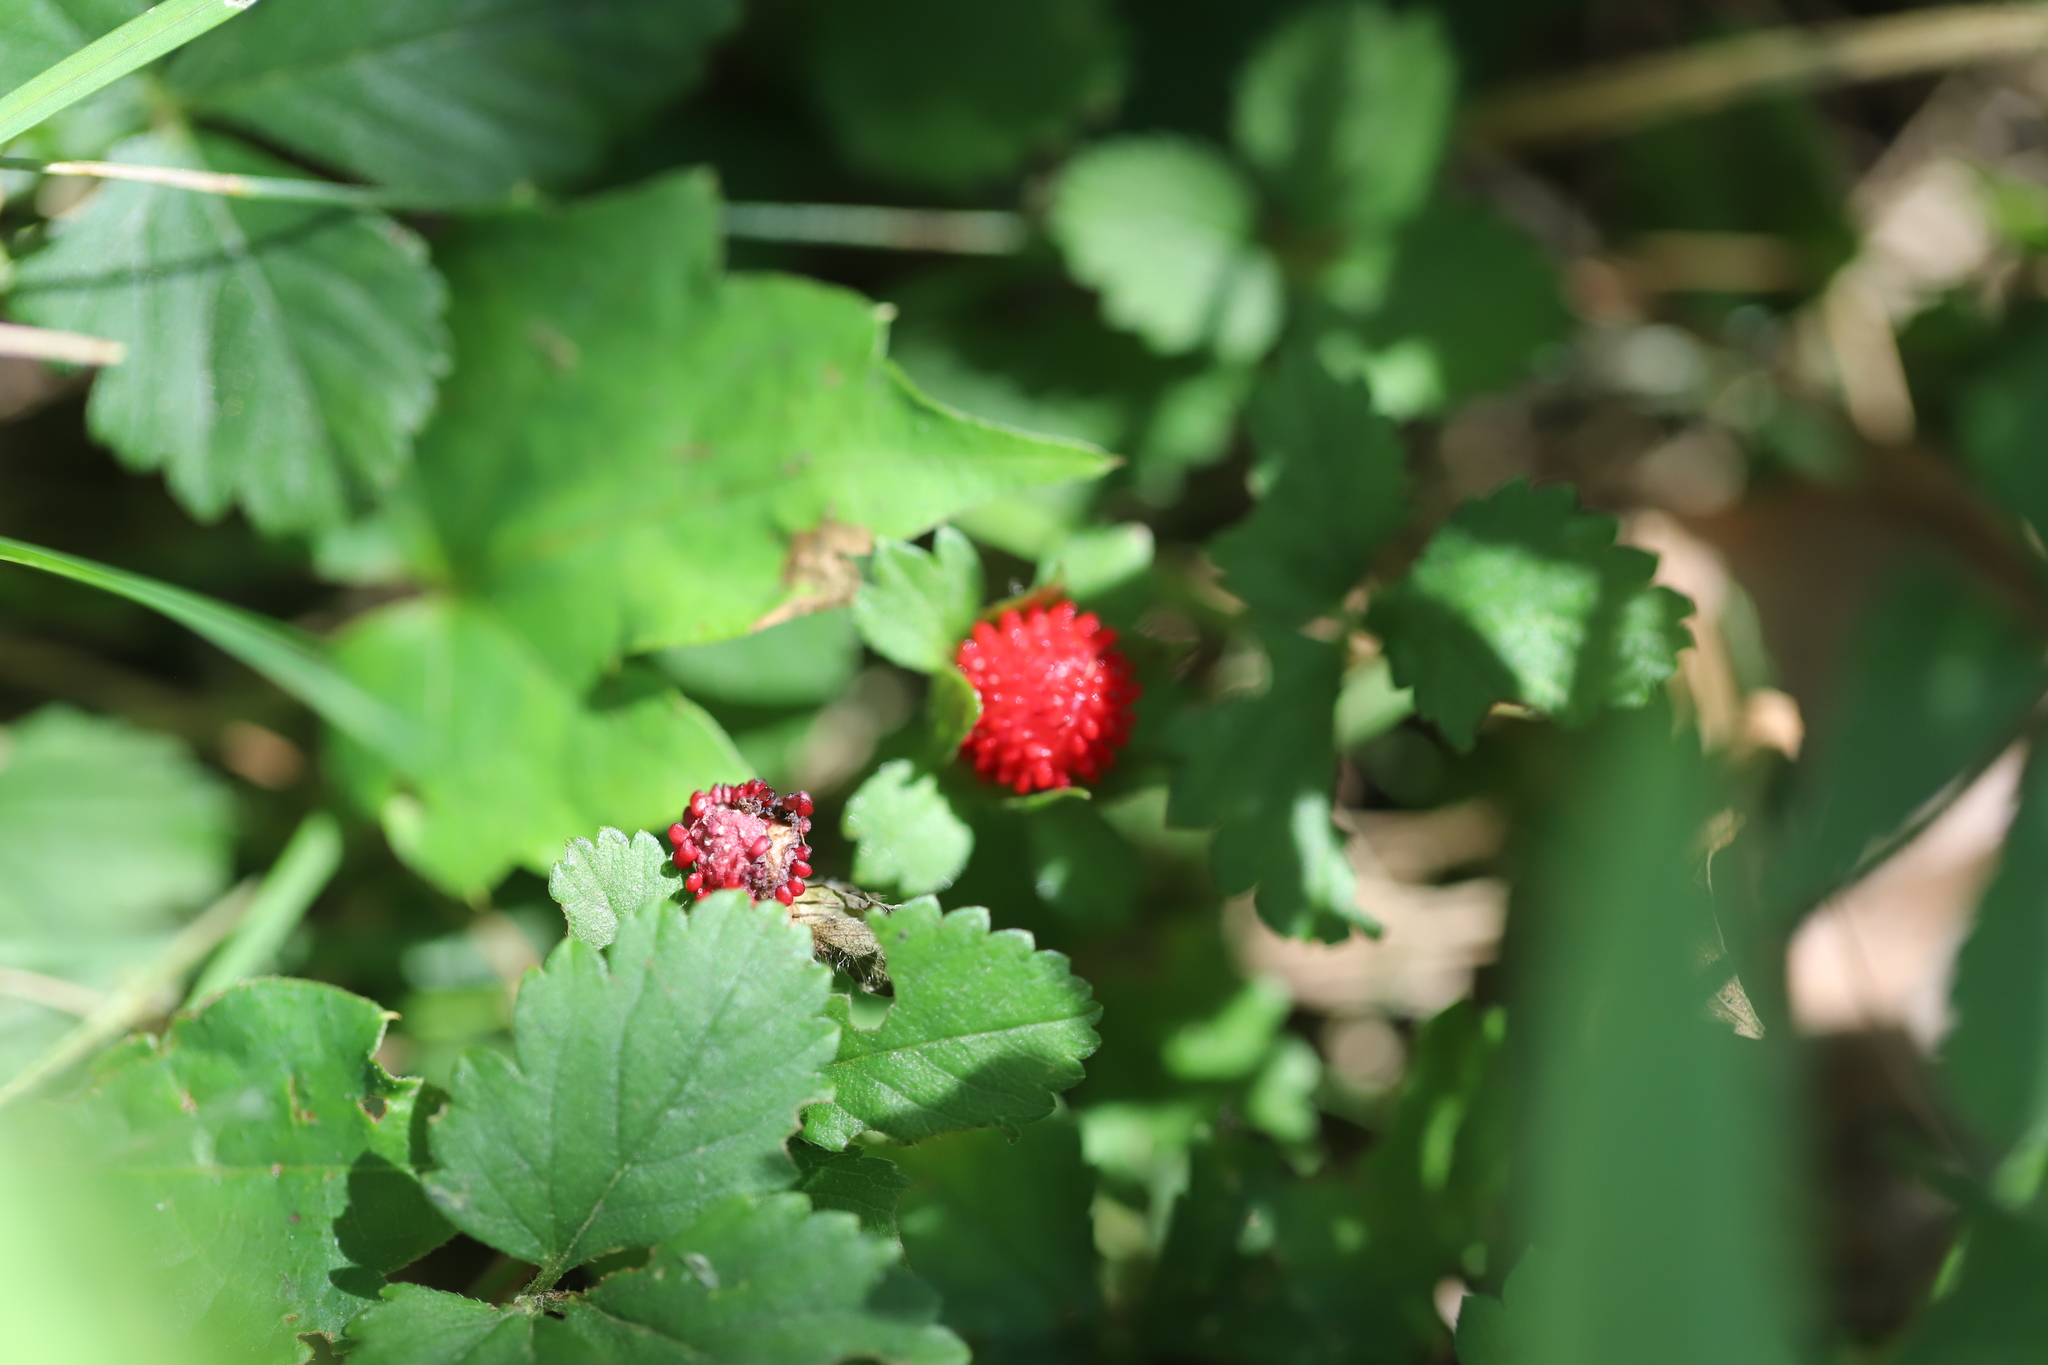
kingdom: Plantae
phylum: Tracheophyta
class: Magnoliopsida
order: Rosales
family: Rosaceae
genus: Potentilla
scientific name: Potentilla indica
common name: Yellow-flowered strawberry
